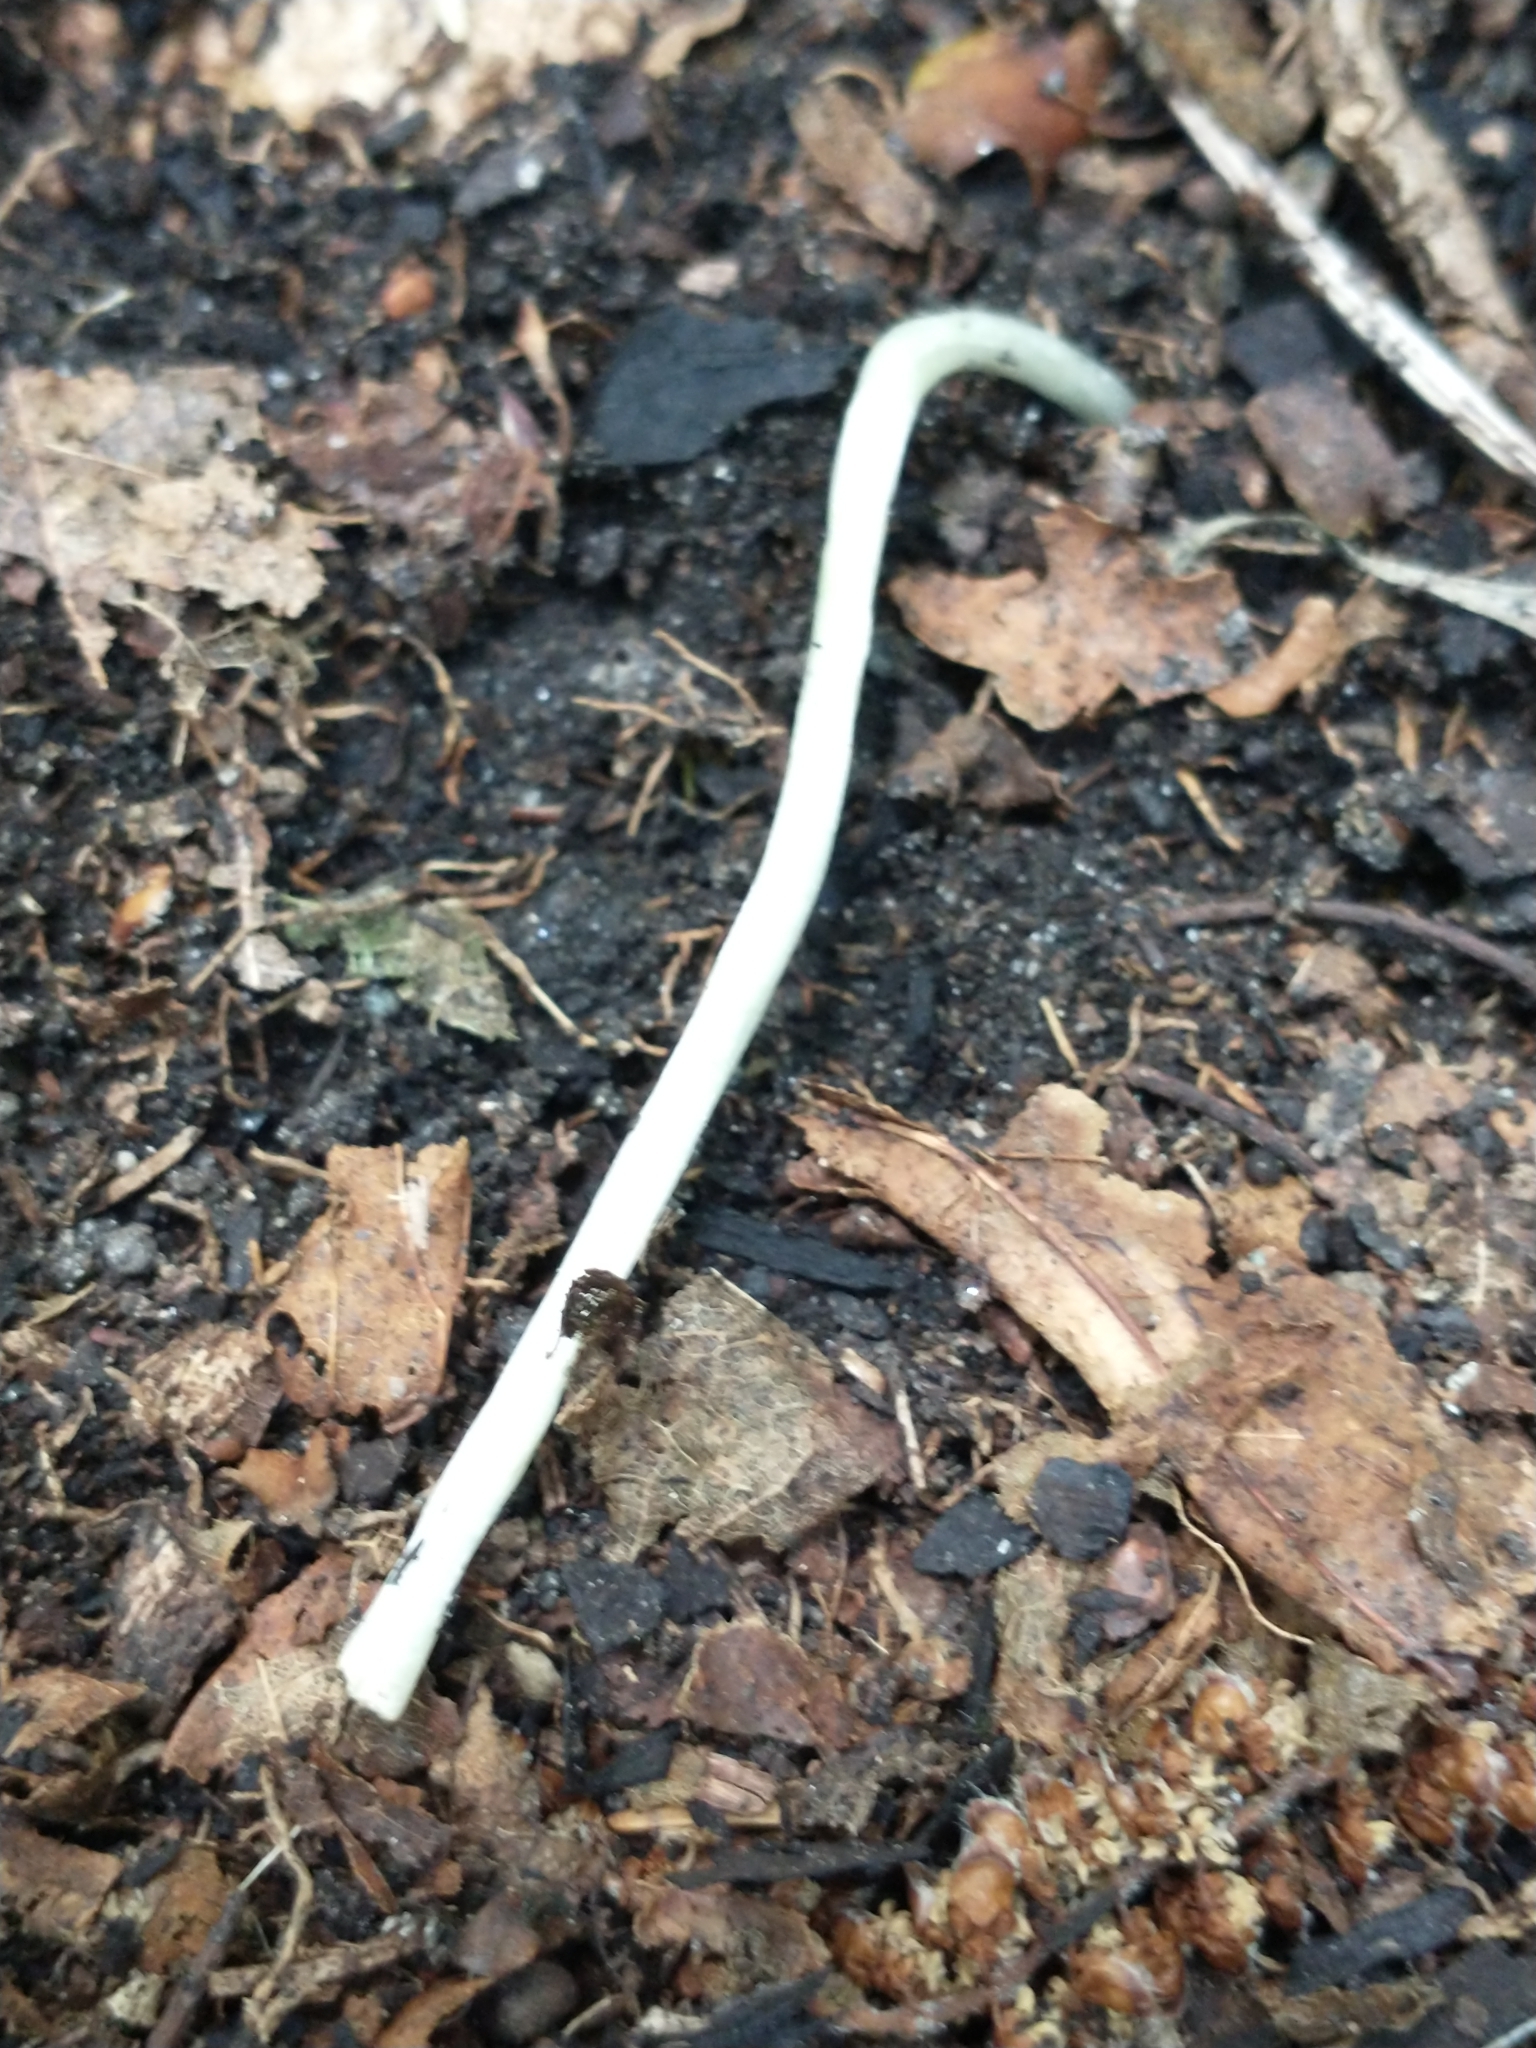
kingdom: Plantae
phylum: Tracheophyta
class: Liliopsida
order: Liliales
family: Liliaceae
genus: Erythronium
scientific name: Erythronium americanum
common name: Yellow adder's-tongue
